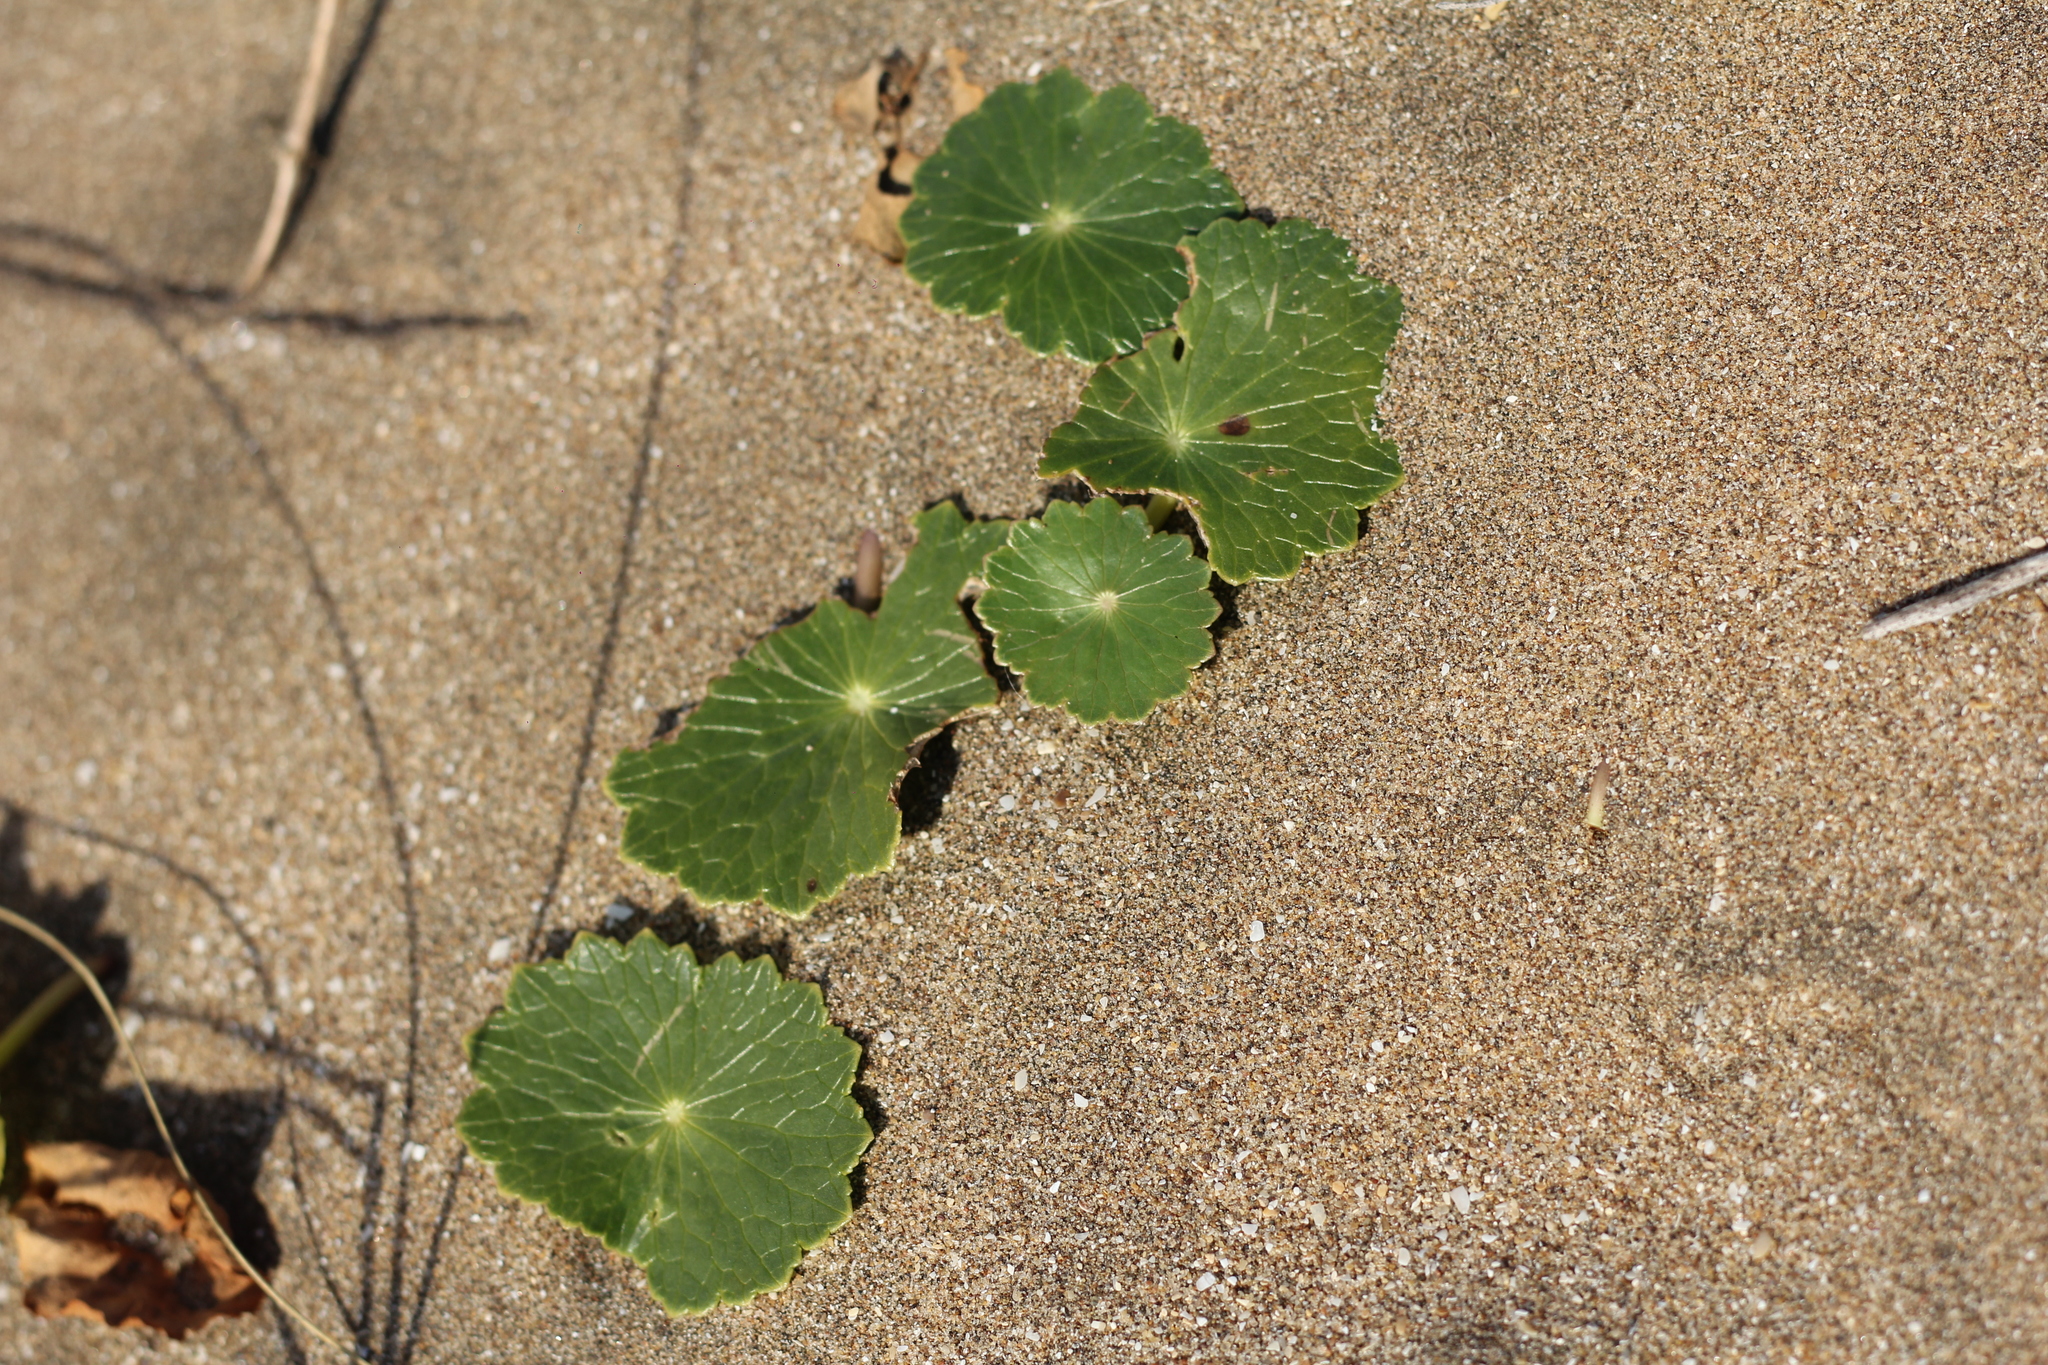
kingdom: Plantae
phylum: Tracheophyta
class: Magnoliopsida
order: Apiales
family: Araliaceae
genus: Hydrocotyle
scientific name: Hydrocotyle bonariensis
